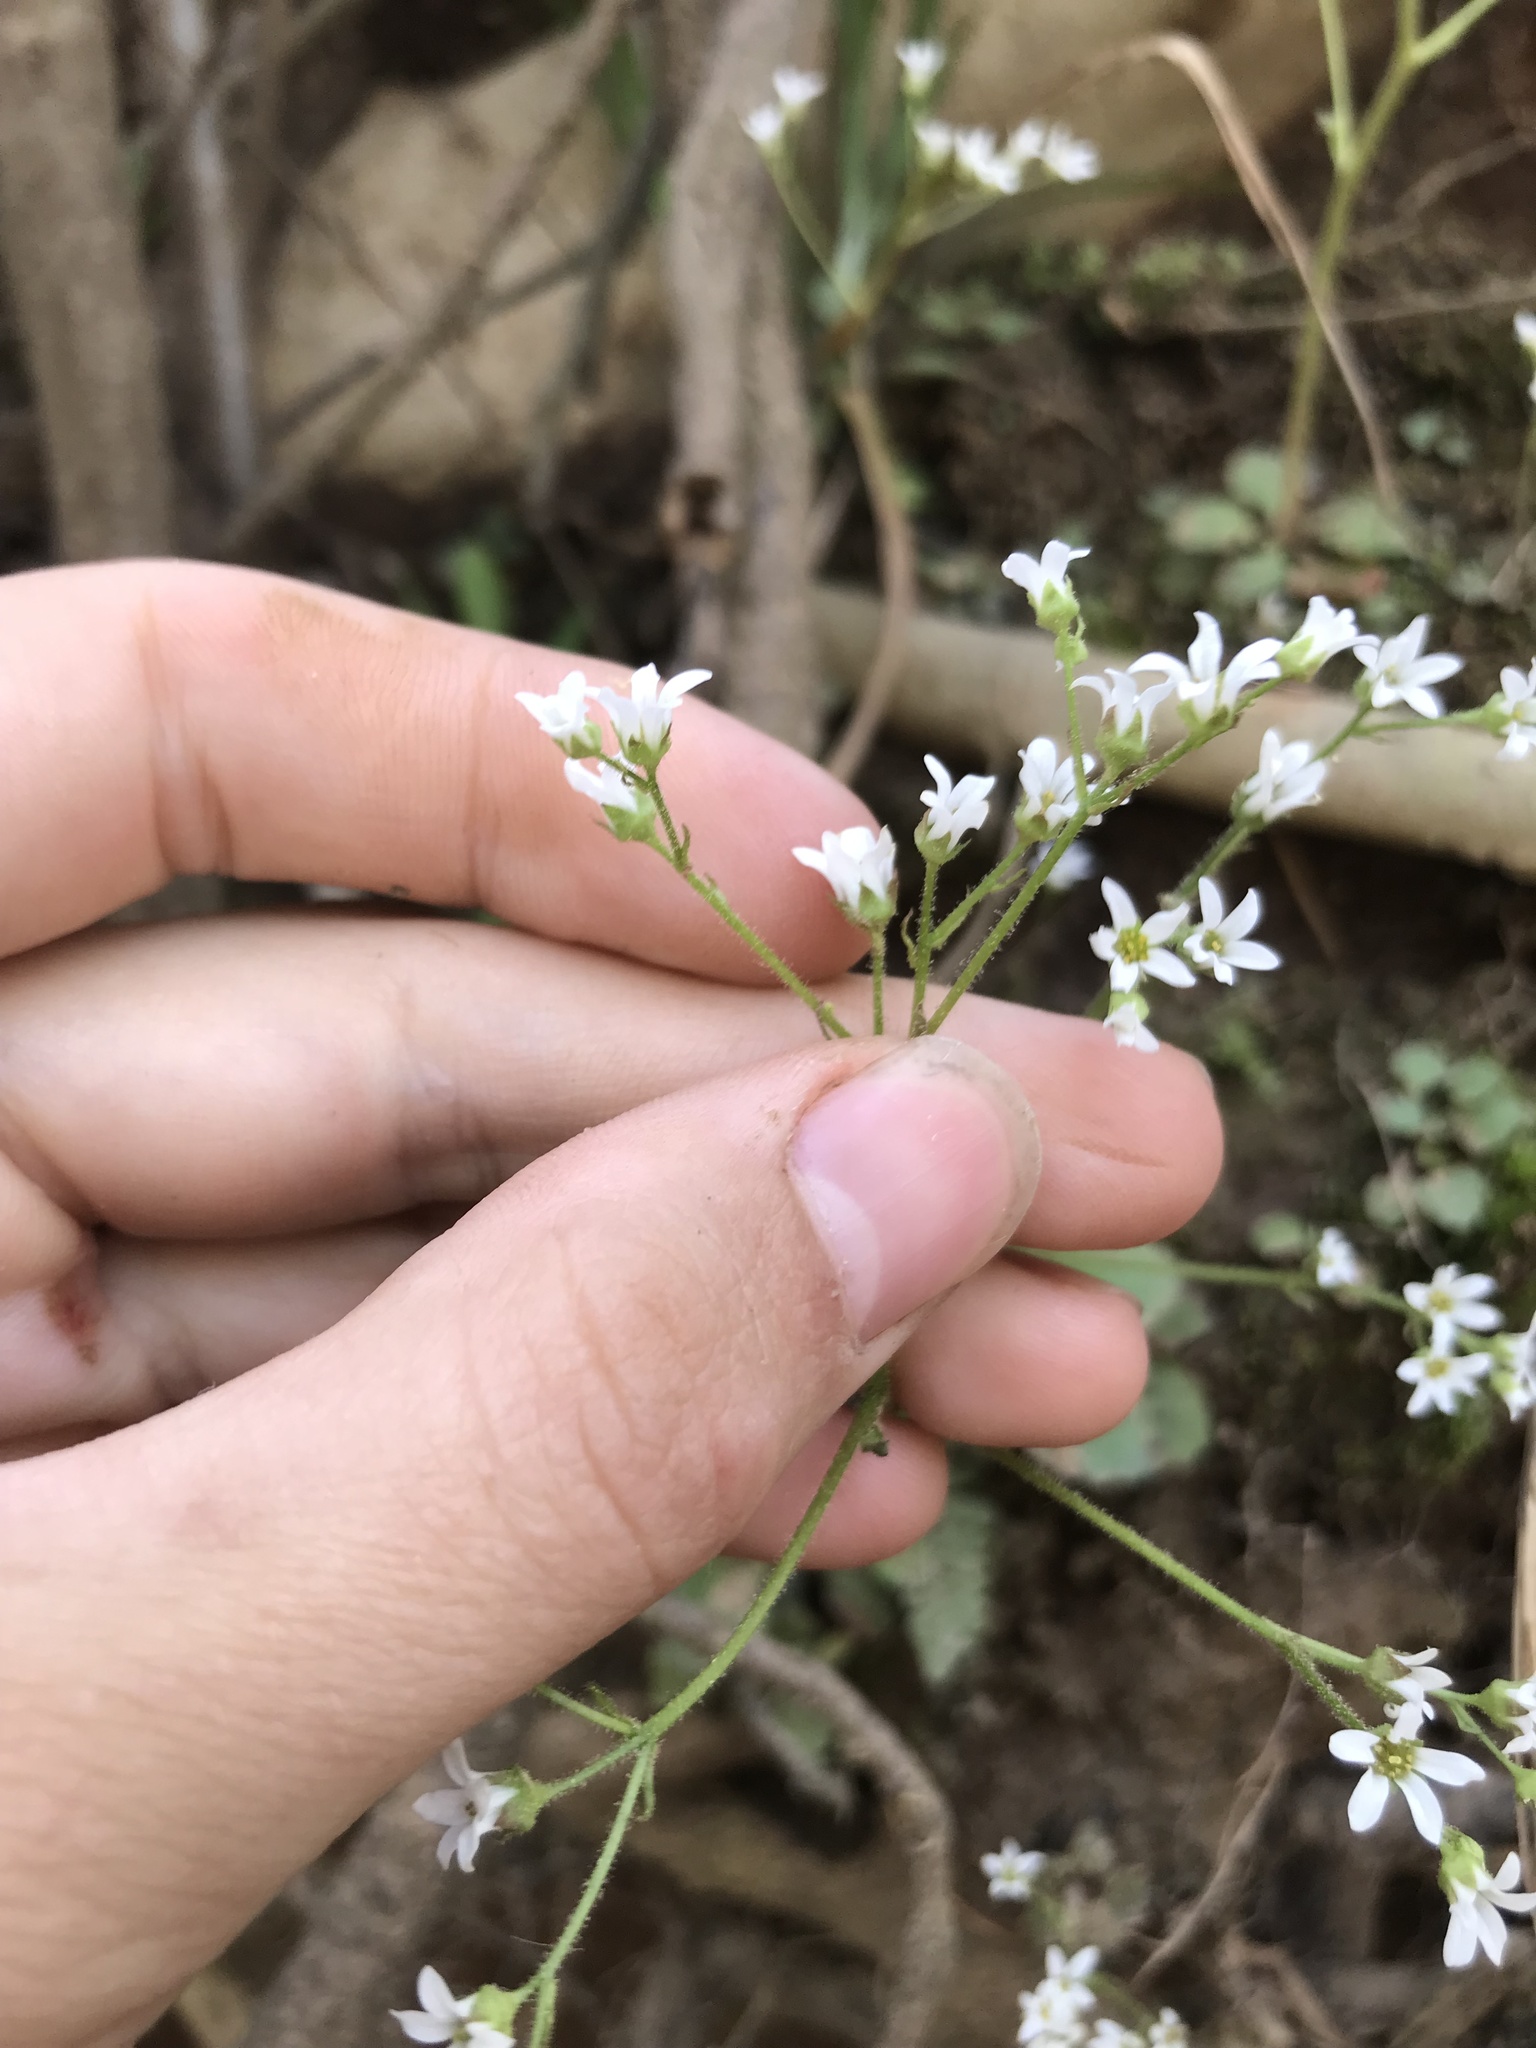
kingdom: Plantae
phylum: Tracheophyta
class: Magnoliopsida
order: Saxifragales
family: Saxifragaceae
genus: Micranthes
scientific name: Micranthes virginiensis
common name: Early saxifrage
